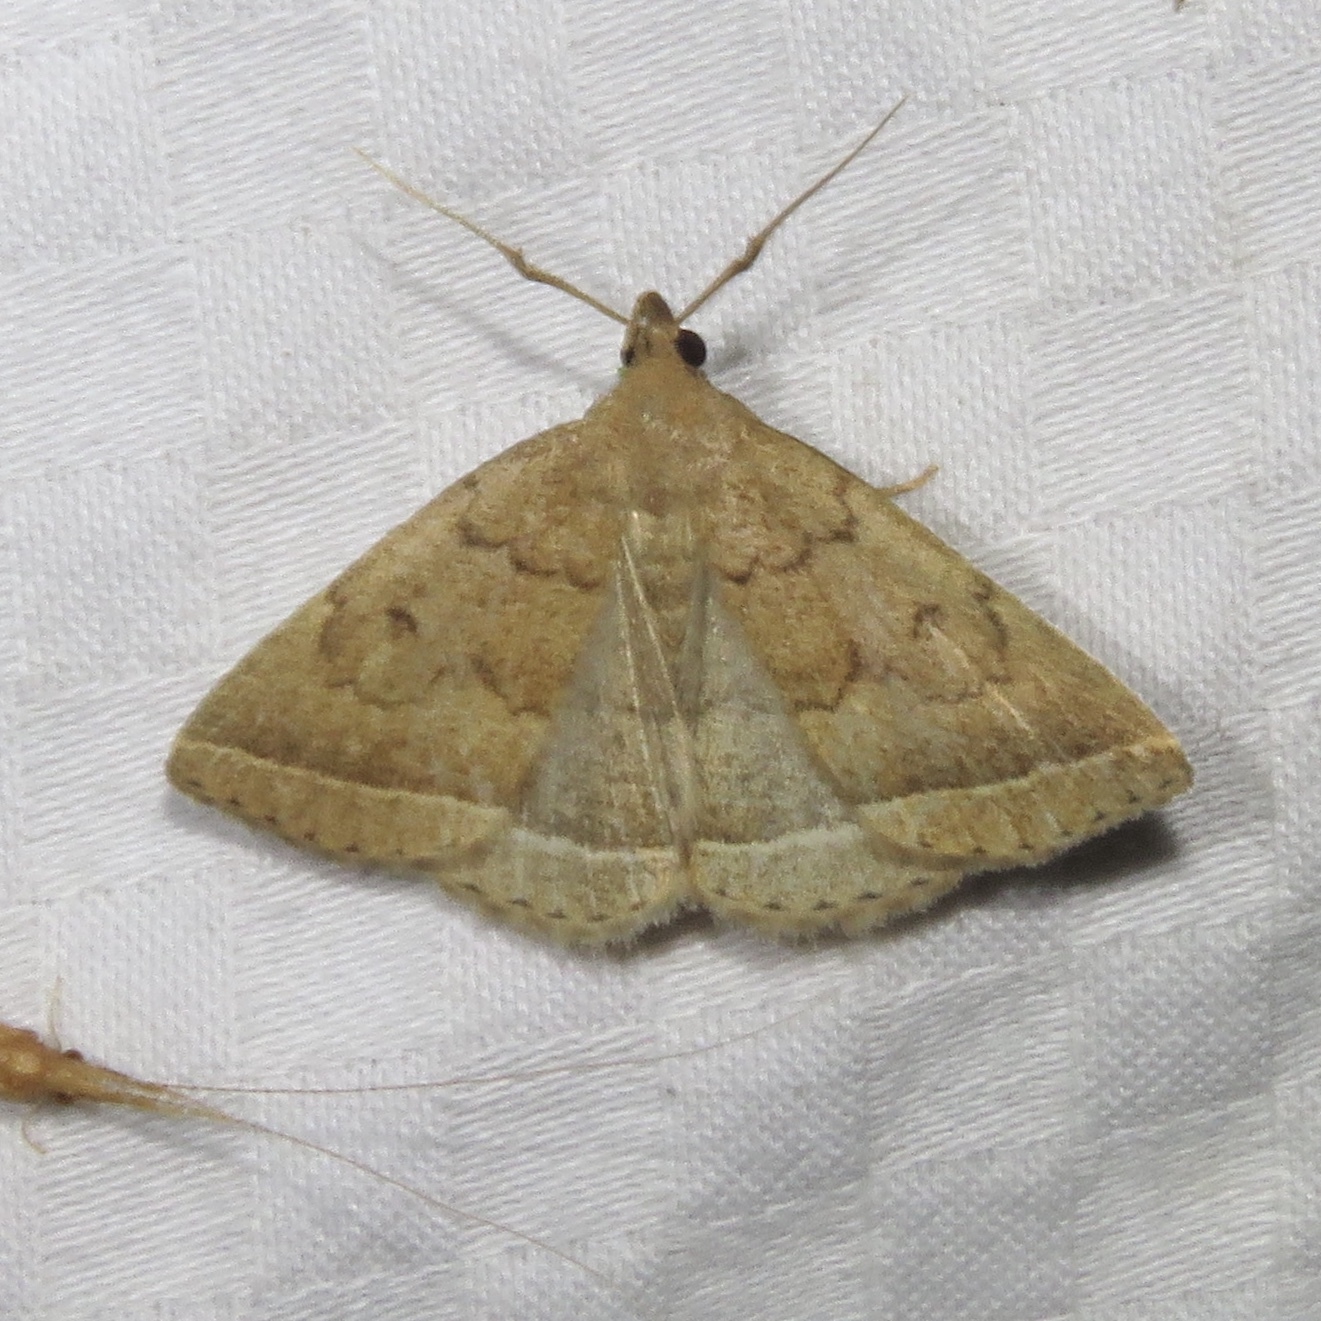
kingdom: Animalia
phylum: Arthropoda
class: Insecta
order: Lepidoptera
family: Erebidae
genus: Zanclognatha
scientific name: Zanclognatha jacchusalis
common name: Yellowish zanclognatha
